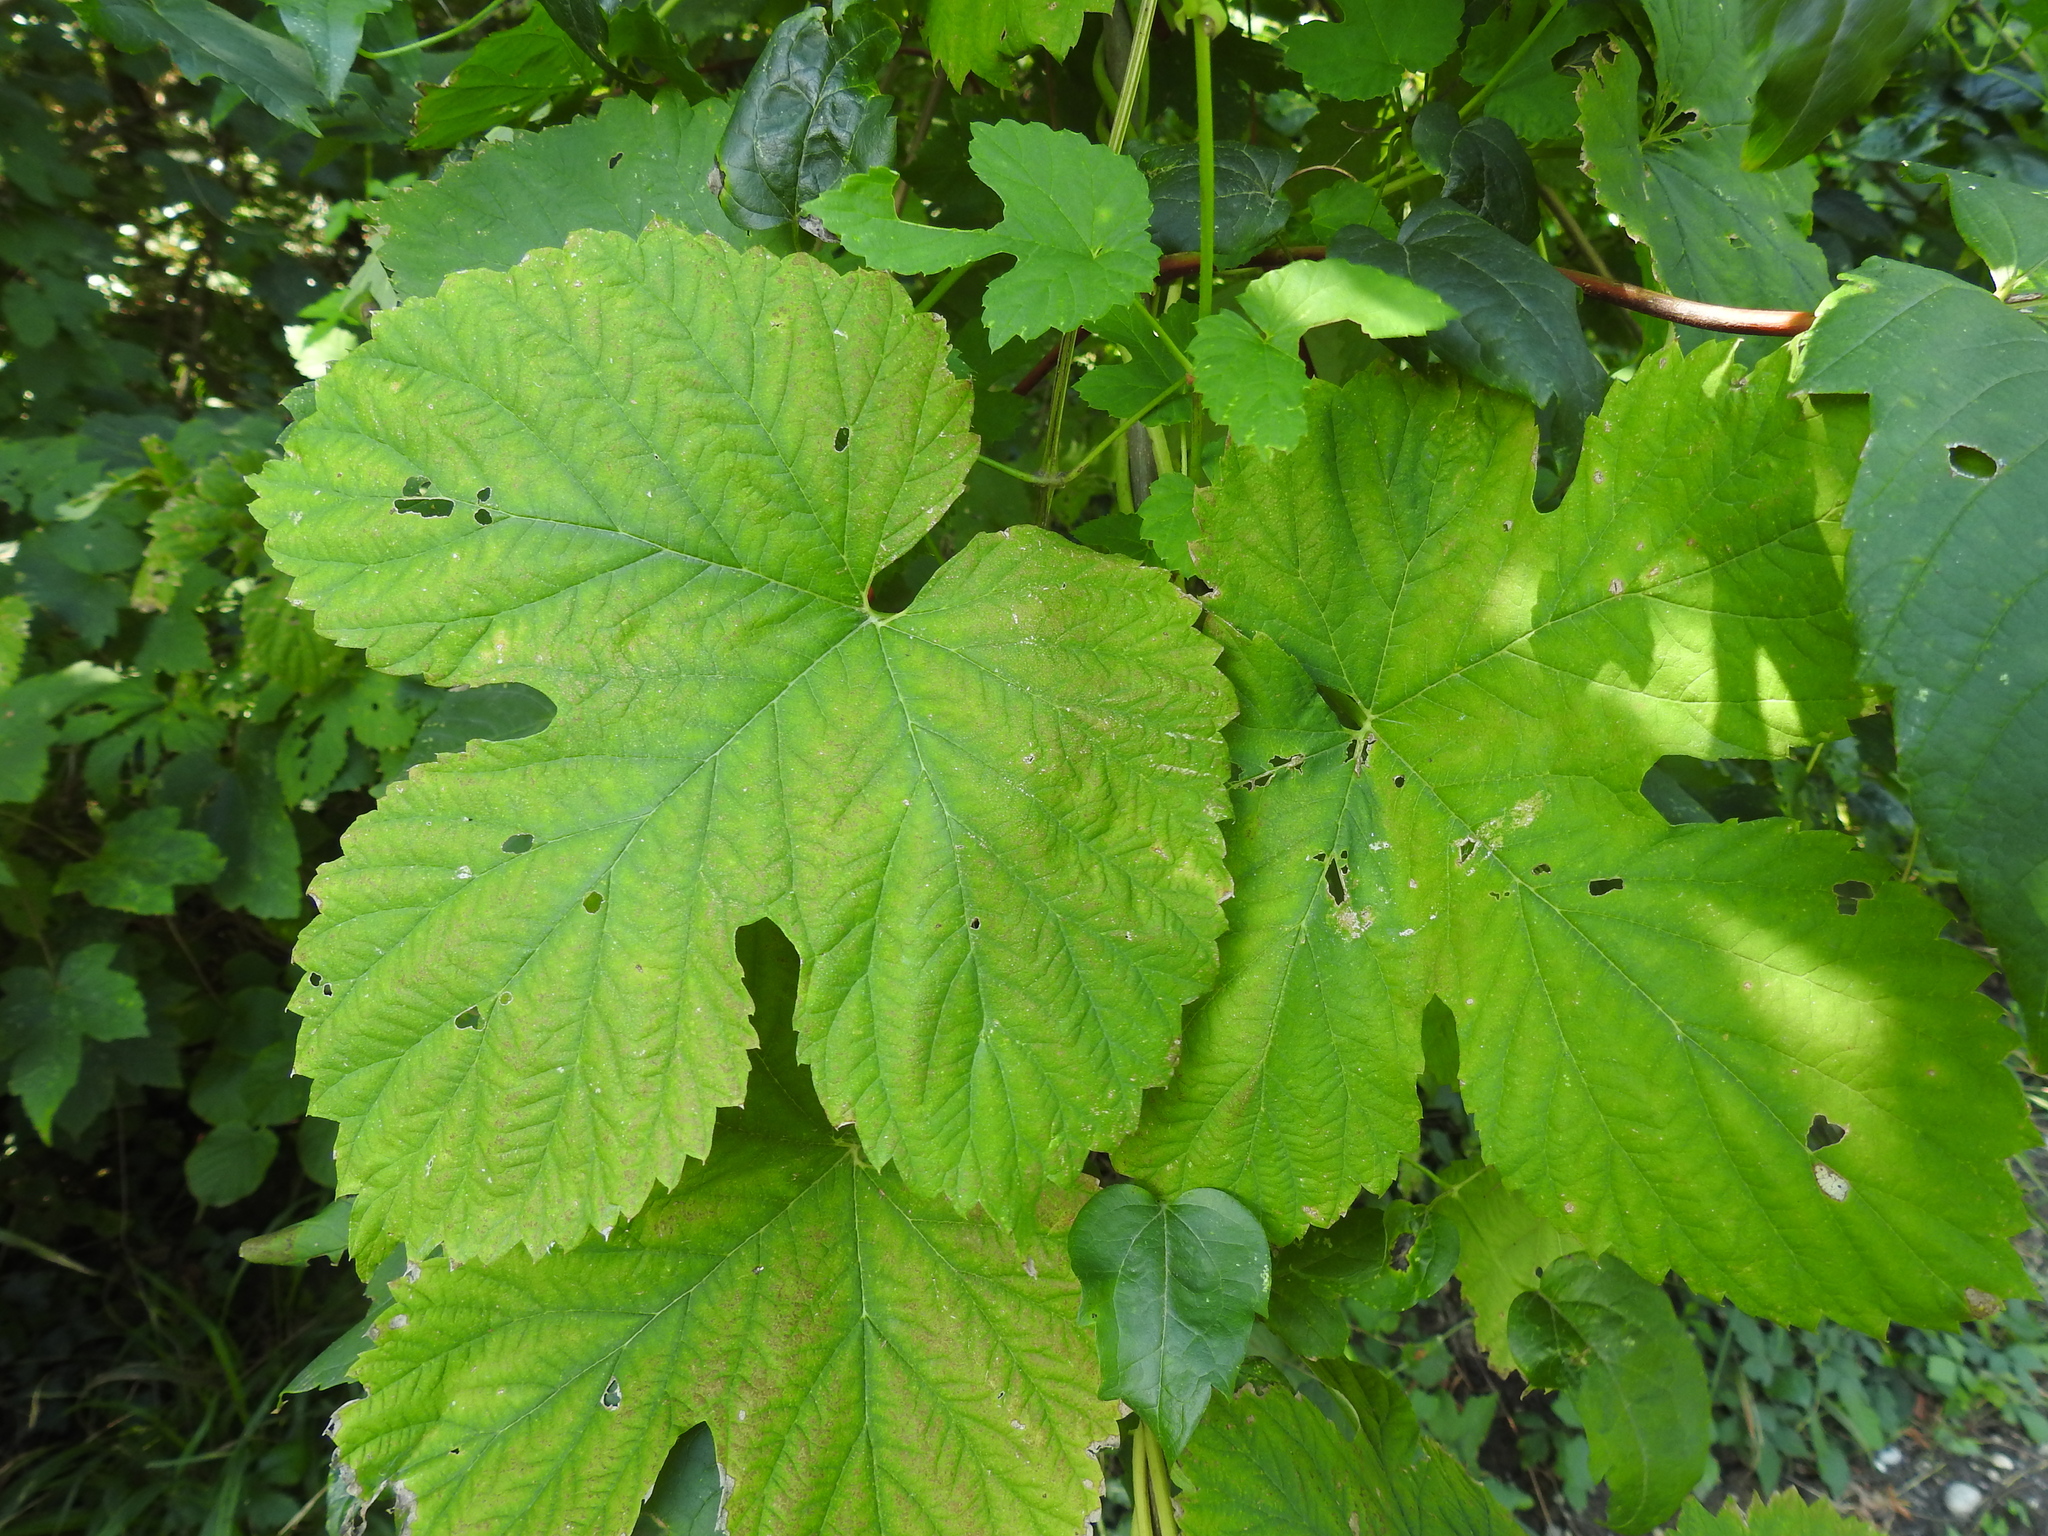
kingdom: Plantae
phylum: Tracheophyta
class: Magnoliopsida
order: Rosales
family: Cannabaceae
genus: Humulus
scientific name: Humulus lupulus
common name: Hop
